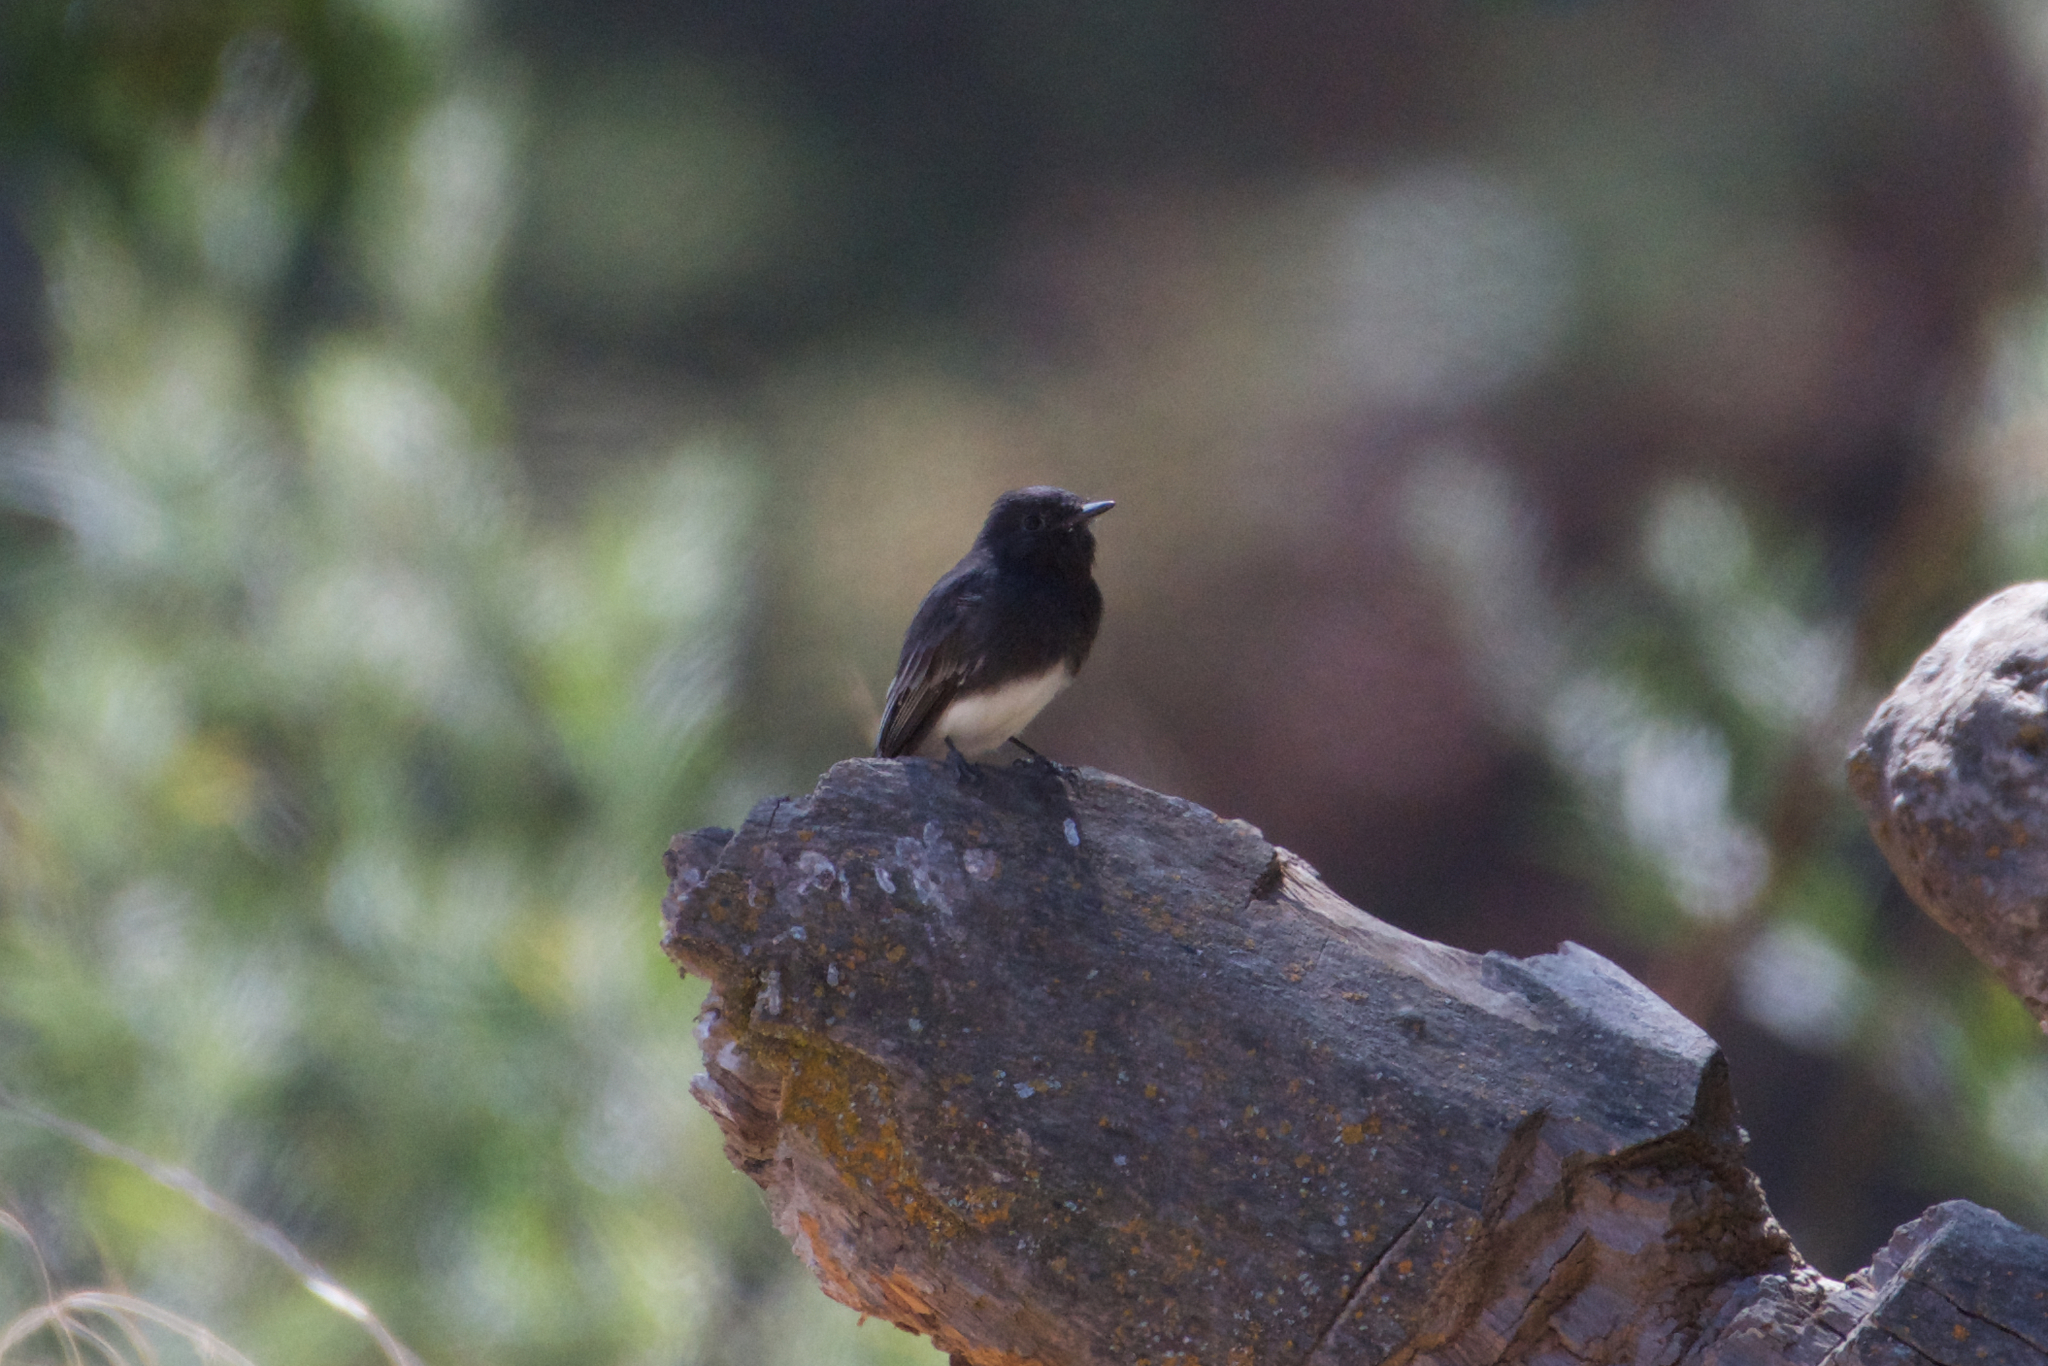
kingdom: Animalia
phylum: Chordata
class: Aves
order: Passeriformes
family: Tyrannidae
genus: Sayornis
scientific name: Sayornis nigricans
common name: Black phoebe
